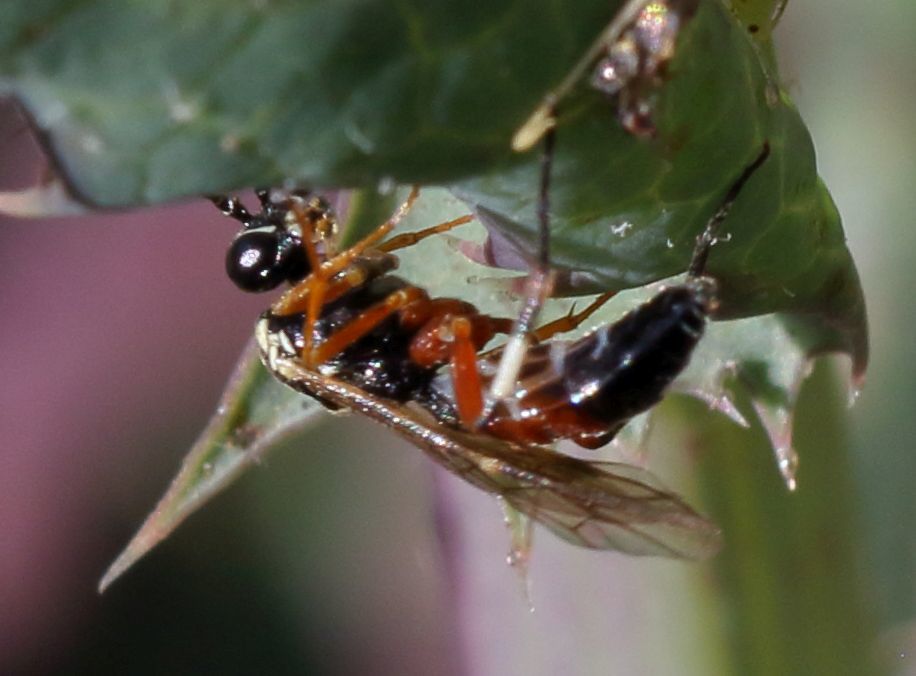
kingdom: Animalia
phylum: Arthropoda
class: Insecta
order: Hymenoptera
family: Ichneumonidae
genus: Diplazon
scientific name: Diplazon laetatorius
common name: Parasitoid wasp
